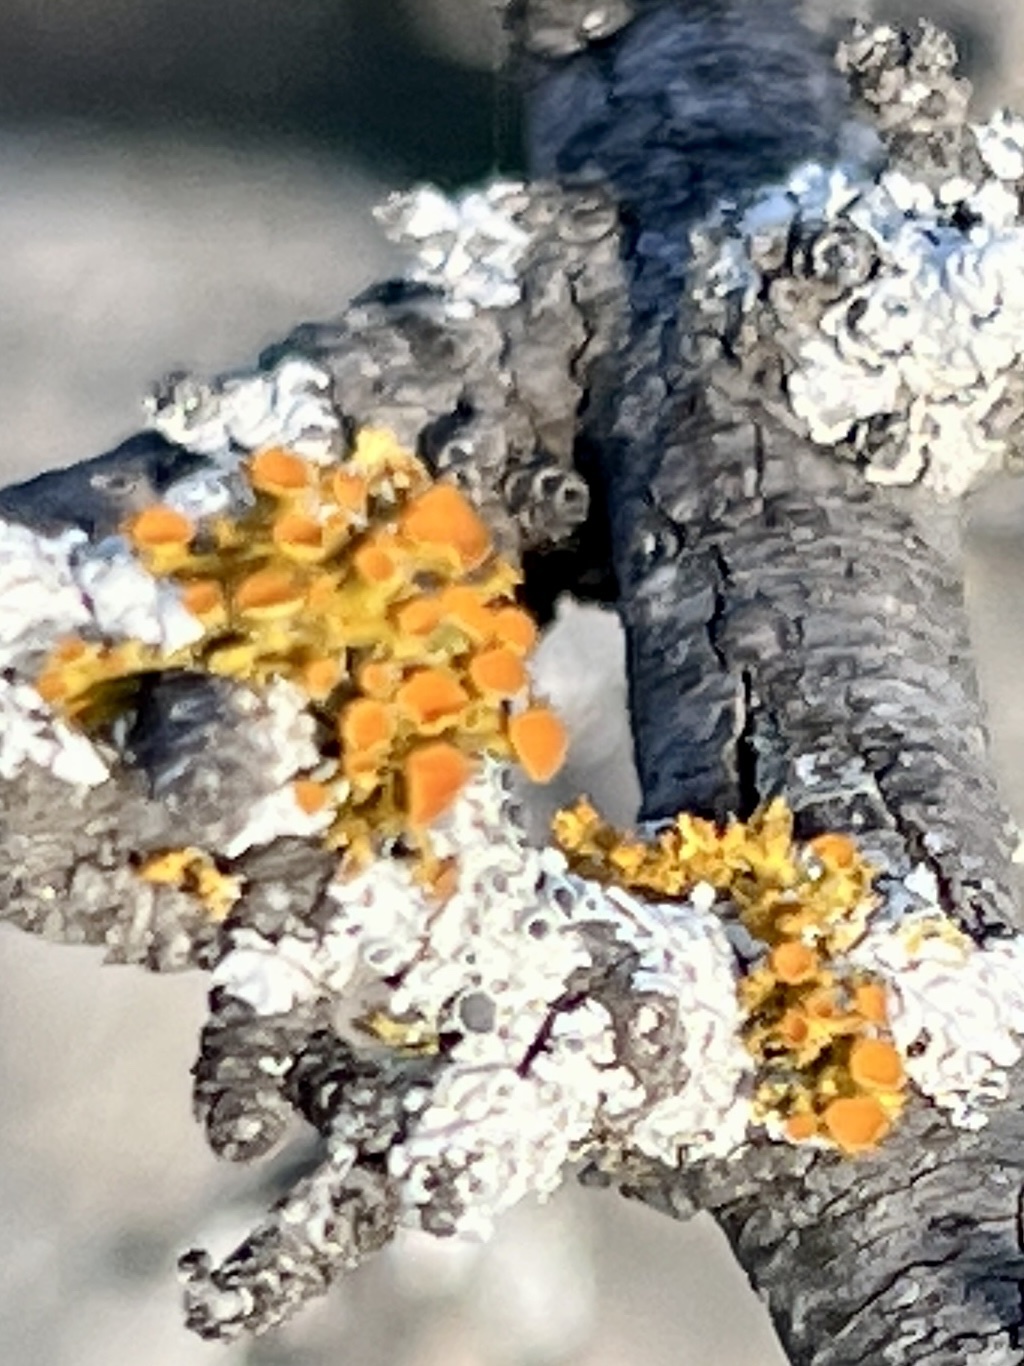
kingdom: Fungi
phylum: Ascomycota
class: Lecanoromycetes
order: Teloschistales
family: Teloschistaceae
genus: Niorma
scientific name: Niorma chrysophthalma
